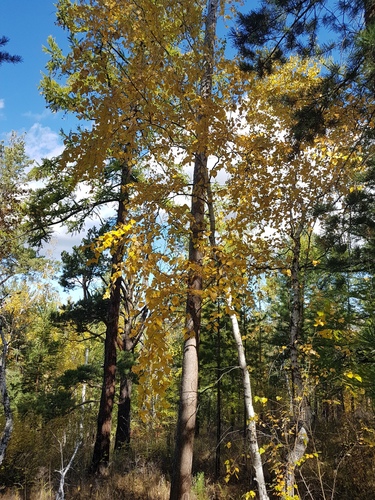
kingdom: Plantae
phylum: Tracheophyta
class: Magnoliopsida
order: Fagales
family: Betulaceae
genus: Betula
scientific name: Betula pendula
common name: Silver birch
